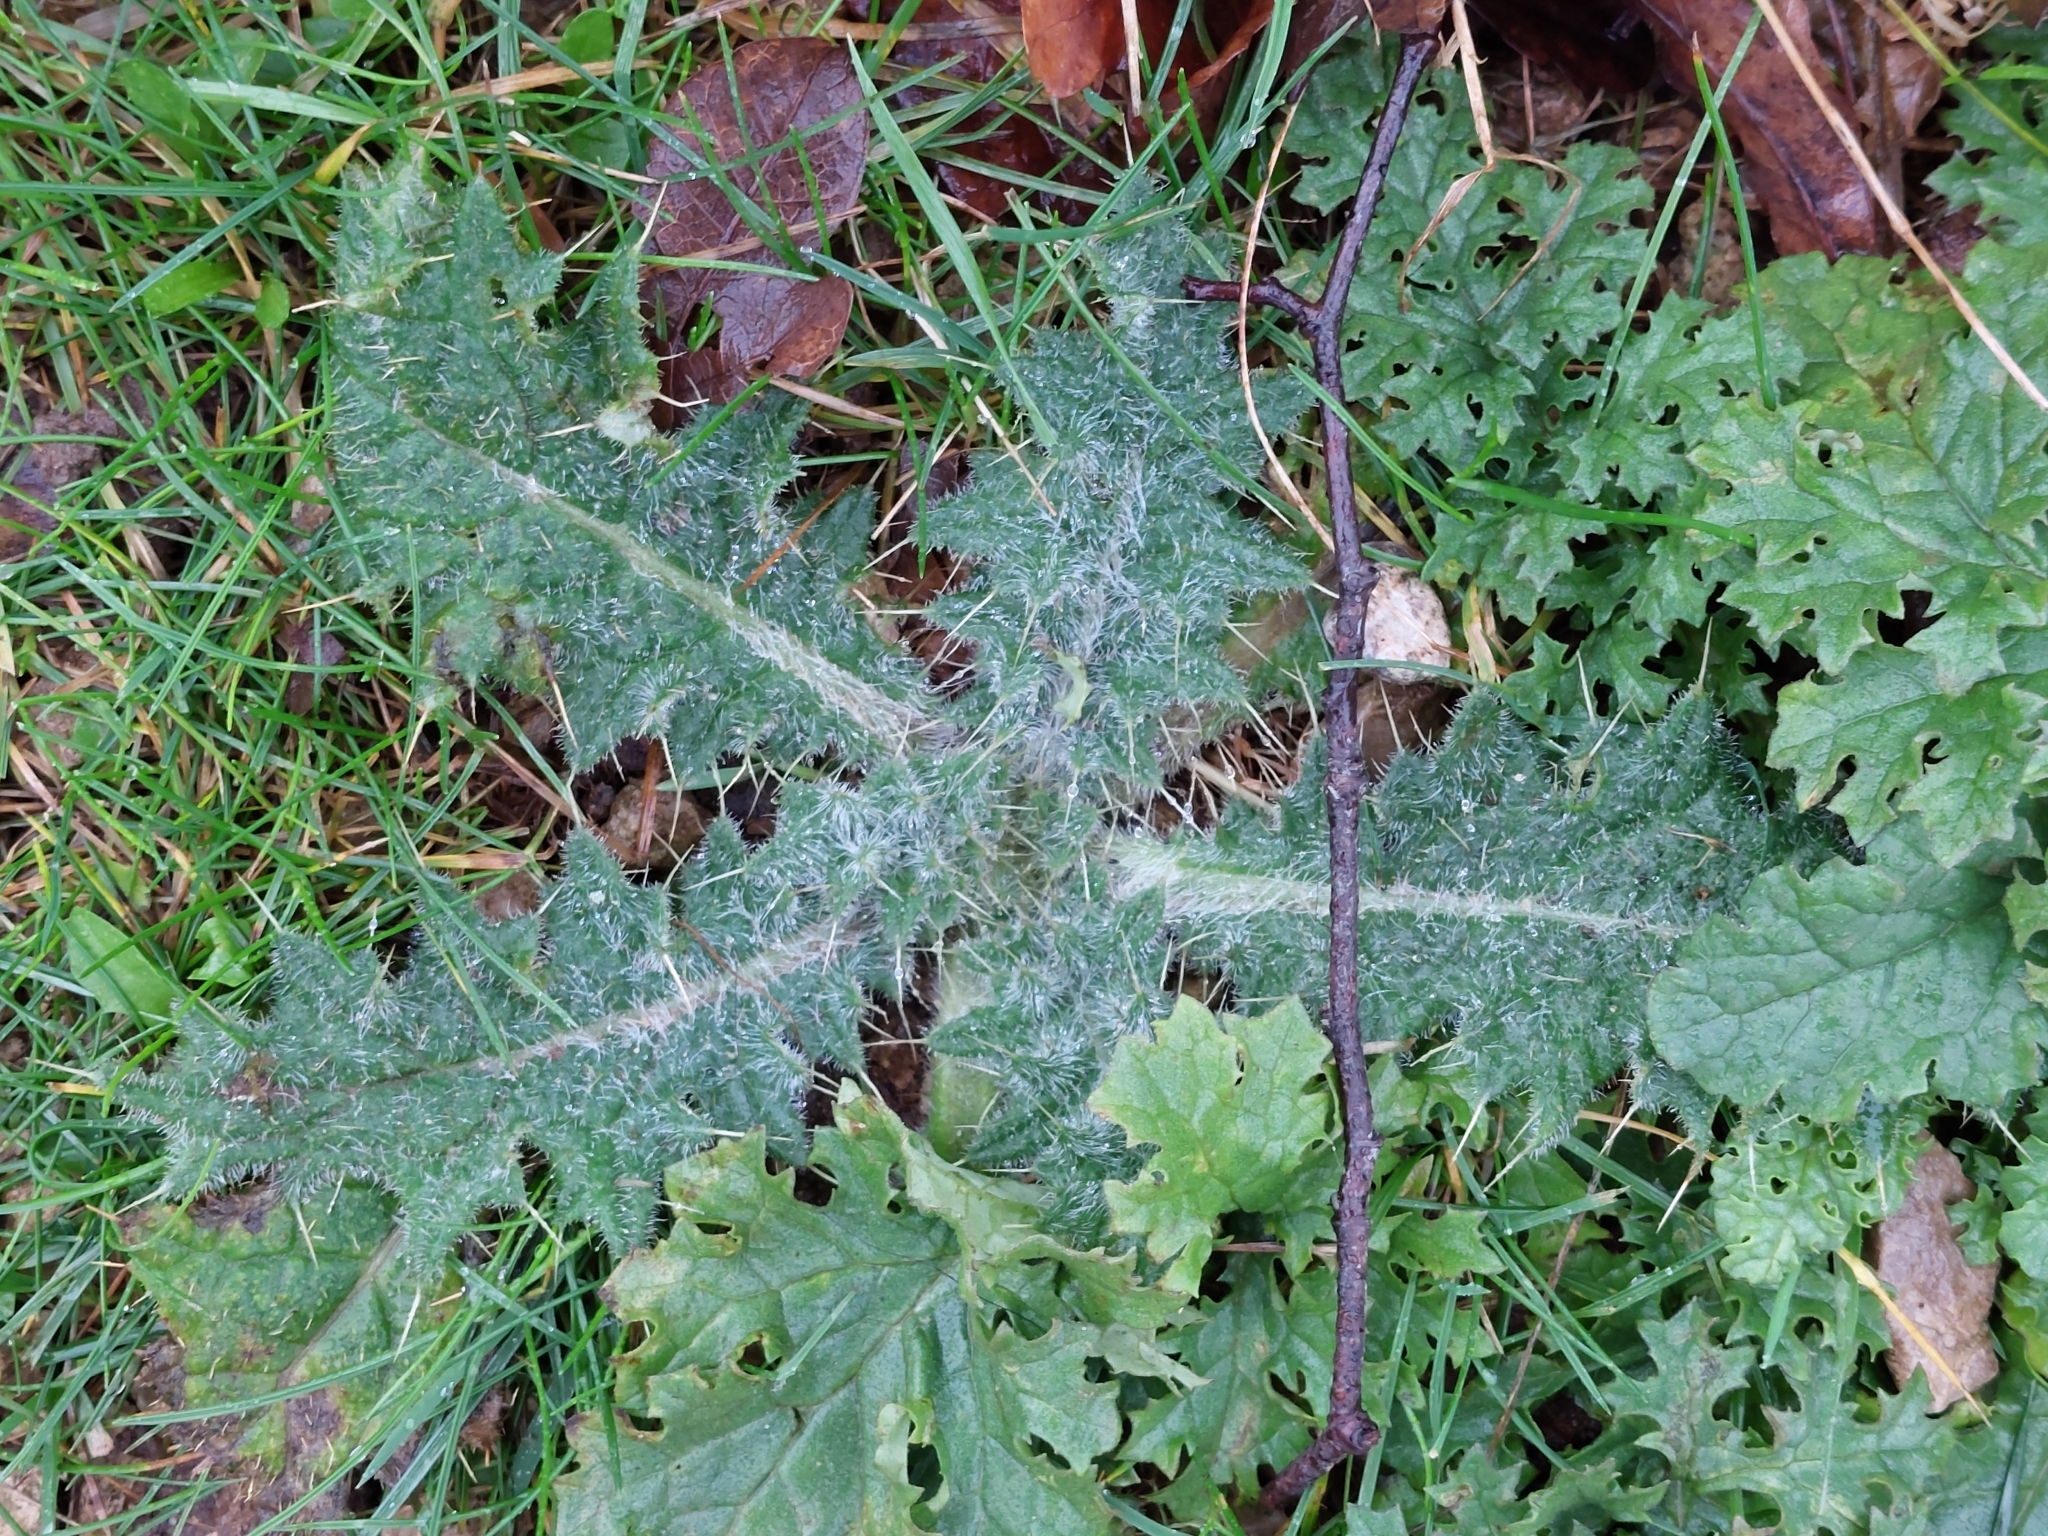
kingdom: Plantae
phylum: Tracheophyta
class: Magnoliopsida
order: Asterales
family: Asteraceae
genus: Cirsium
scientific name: Cirsium vulgare
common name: Bull thistle
